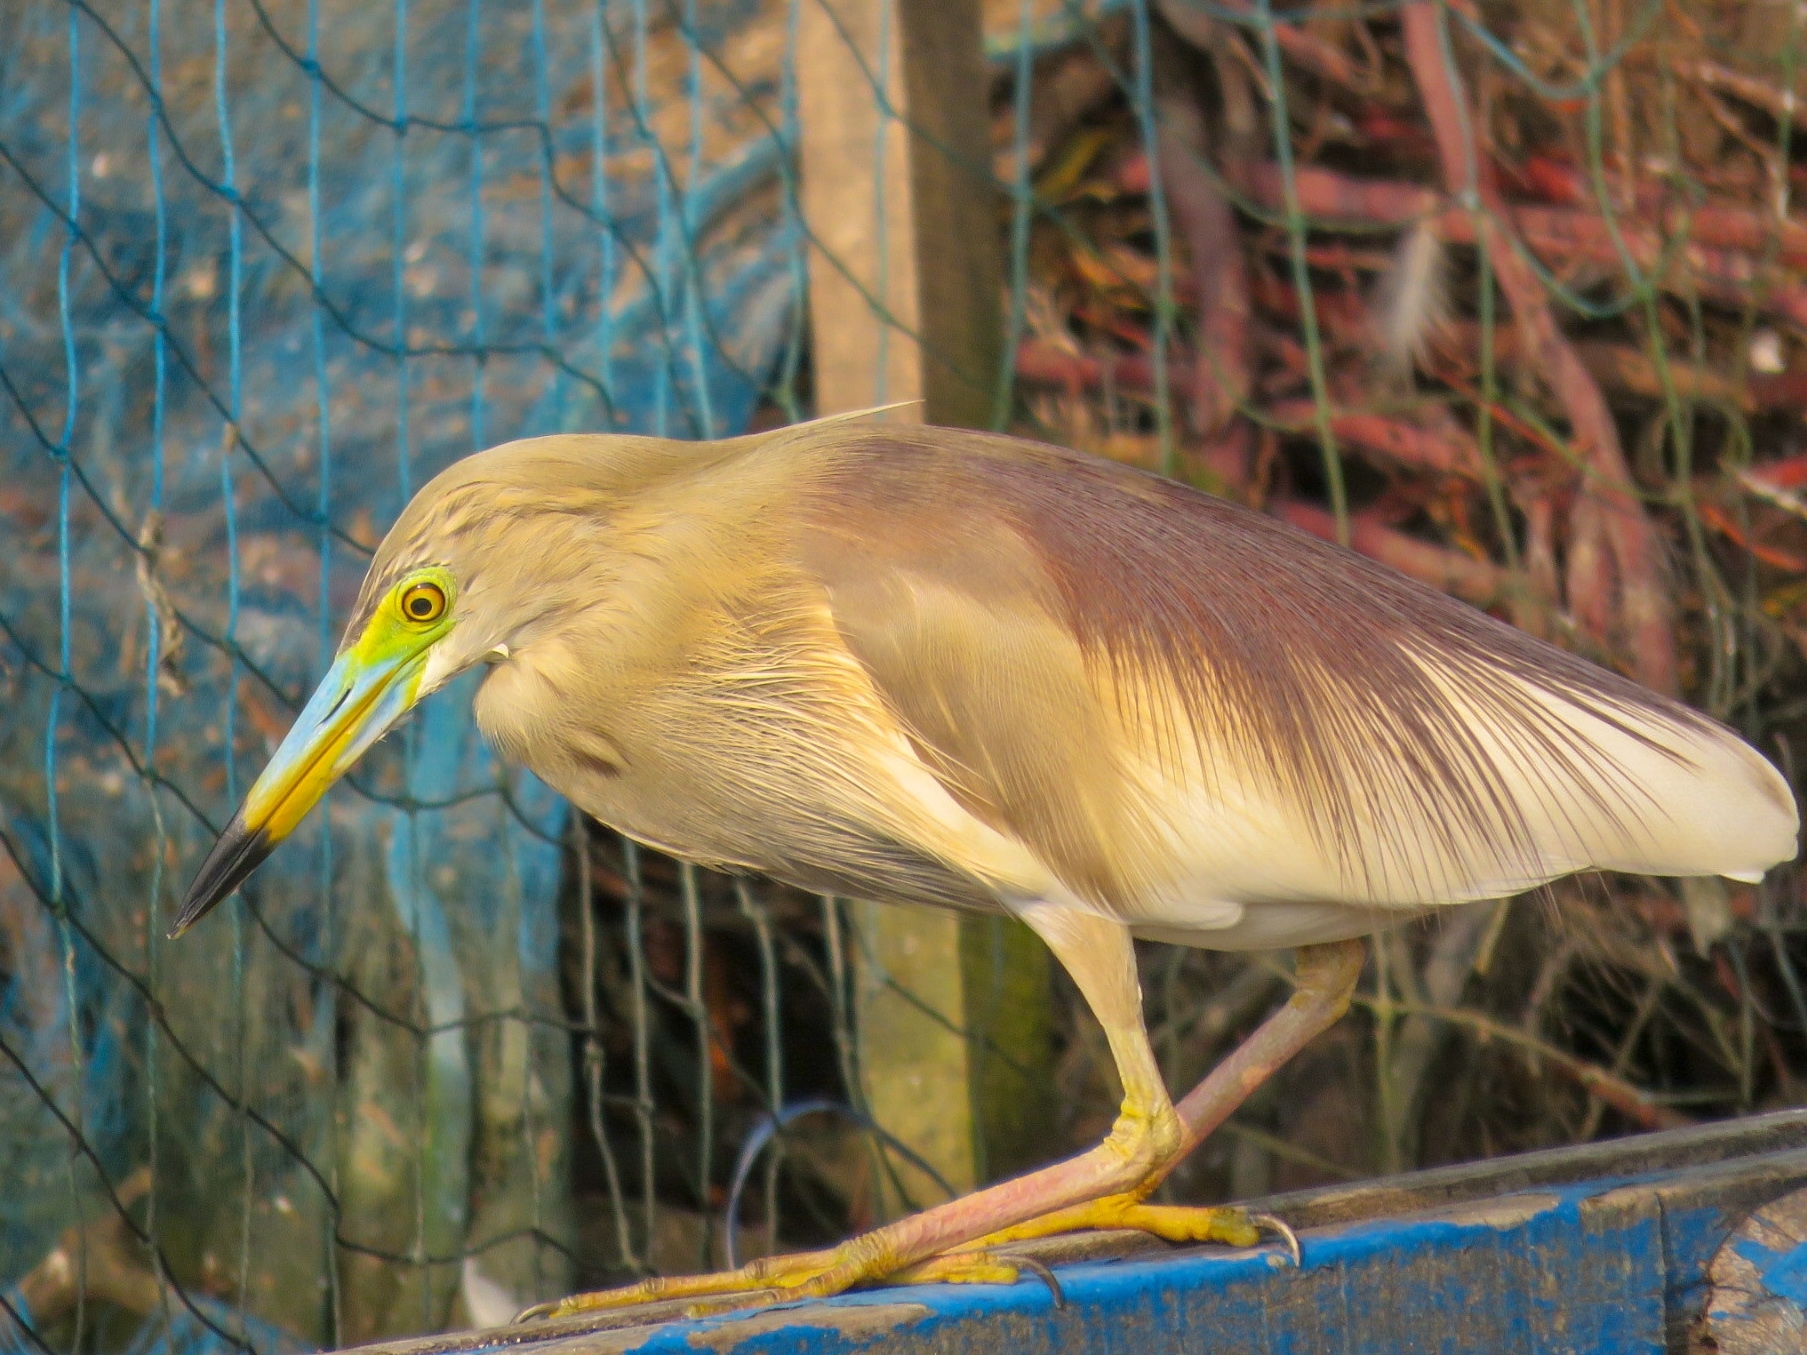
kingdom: Animalia
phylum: Chordata
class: Aves
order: Pelecaniformes
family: Ardeidae
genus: Ardeola
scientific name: Ardeola grayii
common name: Indian pond heron
